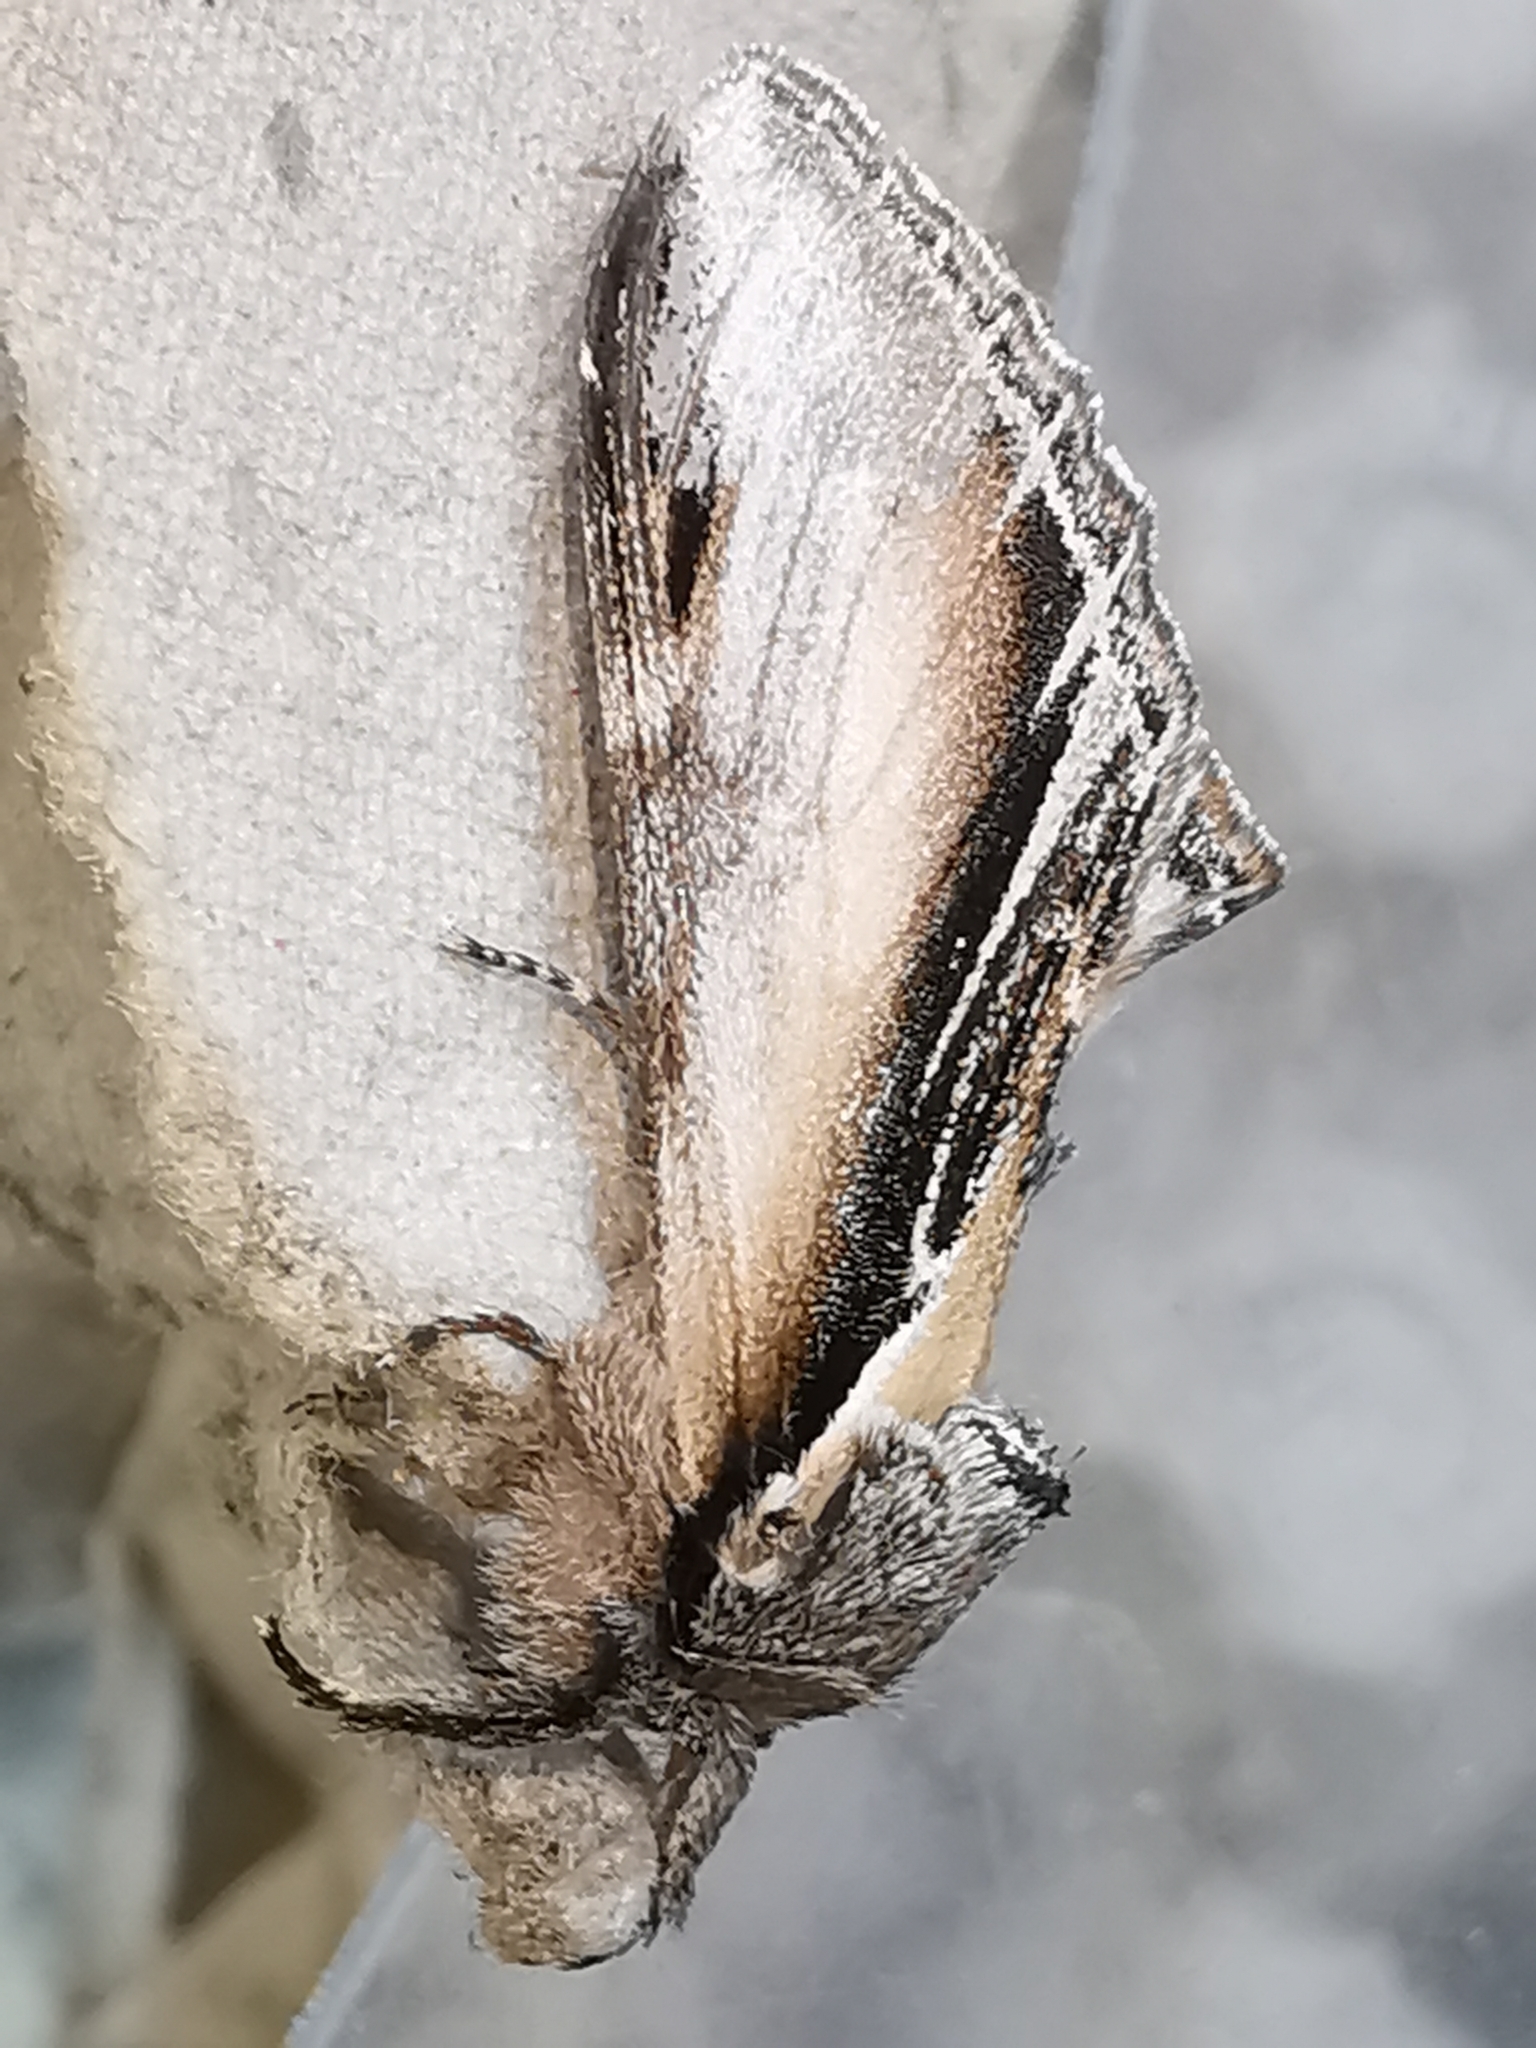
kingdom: Animalia
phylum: Arthropoda
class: Insecta
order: Lepidoptera
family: Notodontidae
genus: Pheosia
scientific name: Pheosia tremula
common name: Swallow prominent
